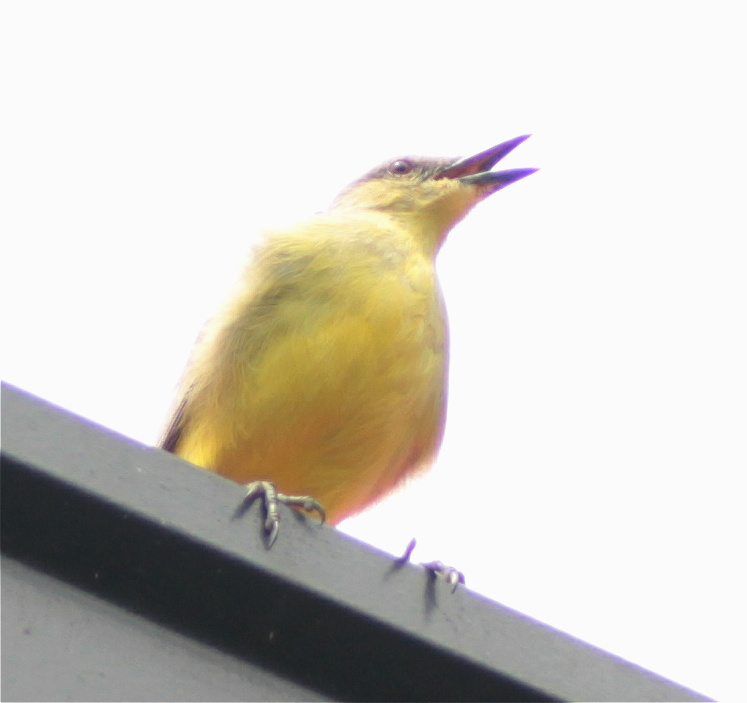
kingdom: Animalia
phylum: Chordata
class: Aves
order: Passeriformes
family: Tyrannidae
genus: Machetornis
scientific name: Machetornis rixosa
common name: Cattle tyrant
